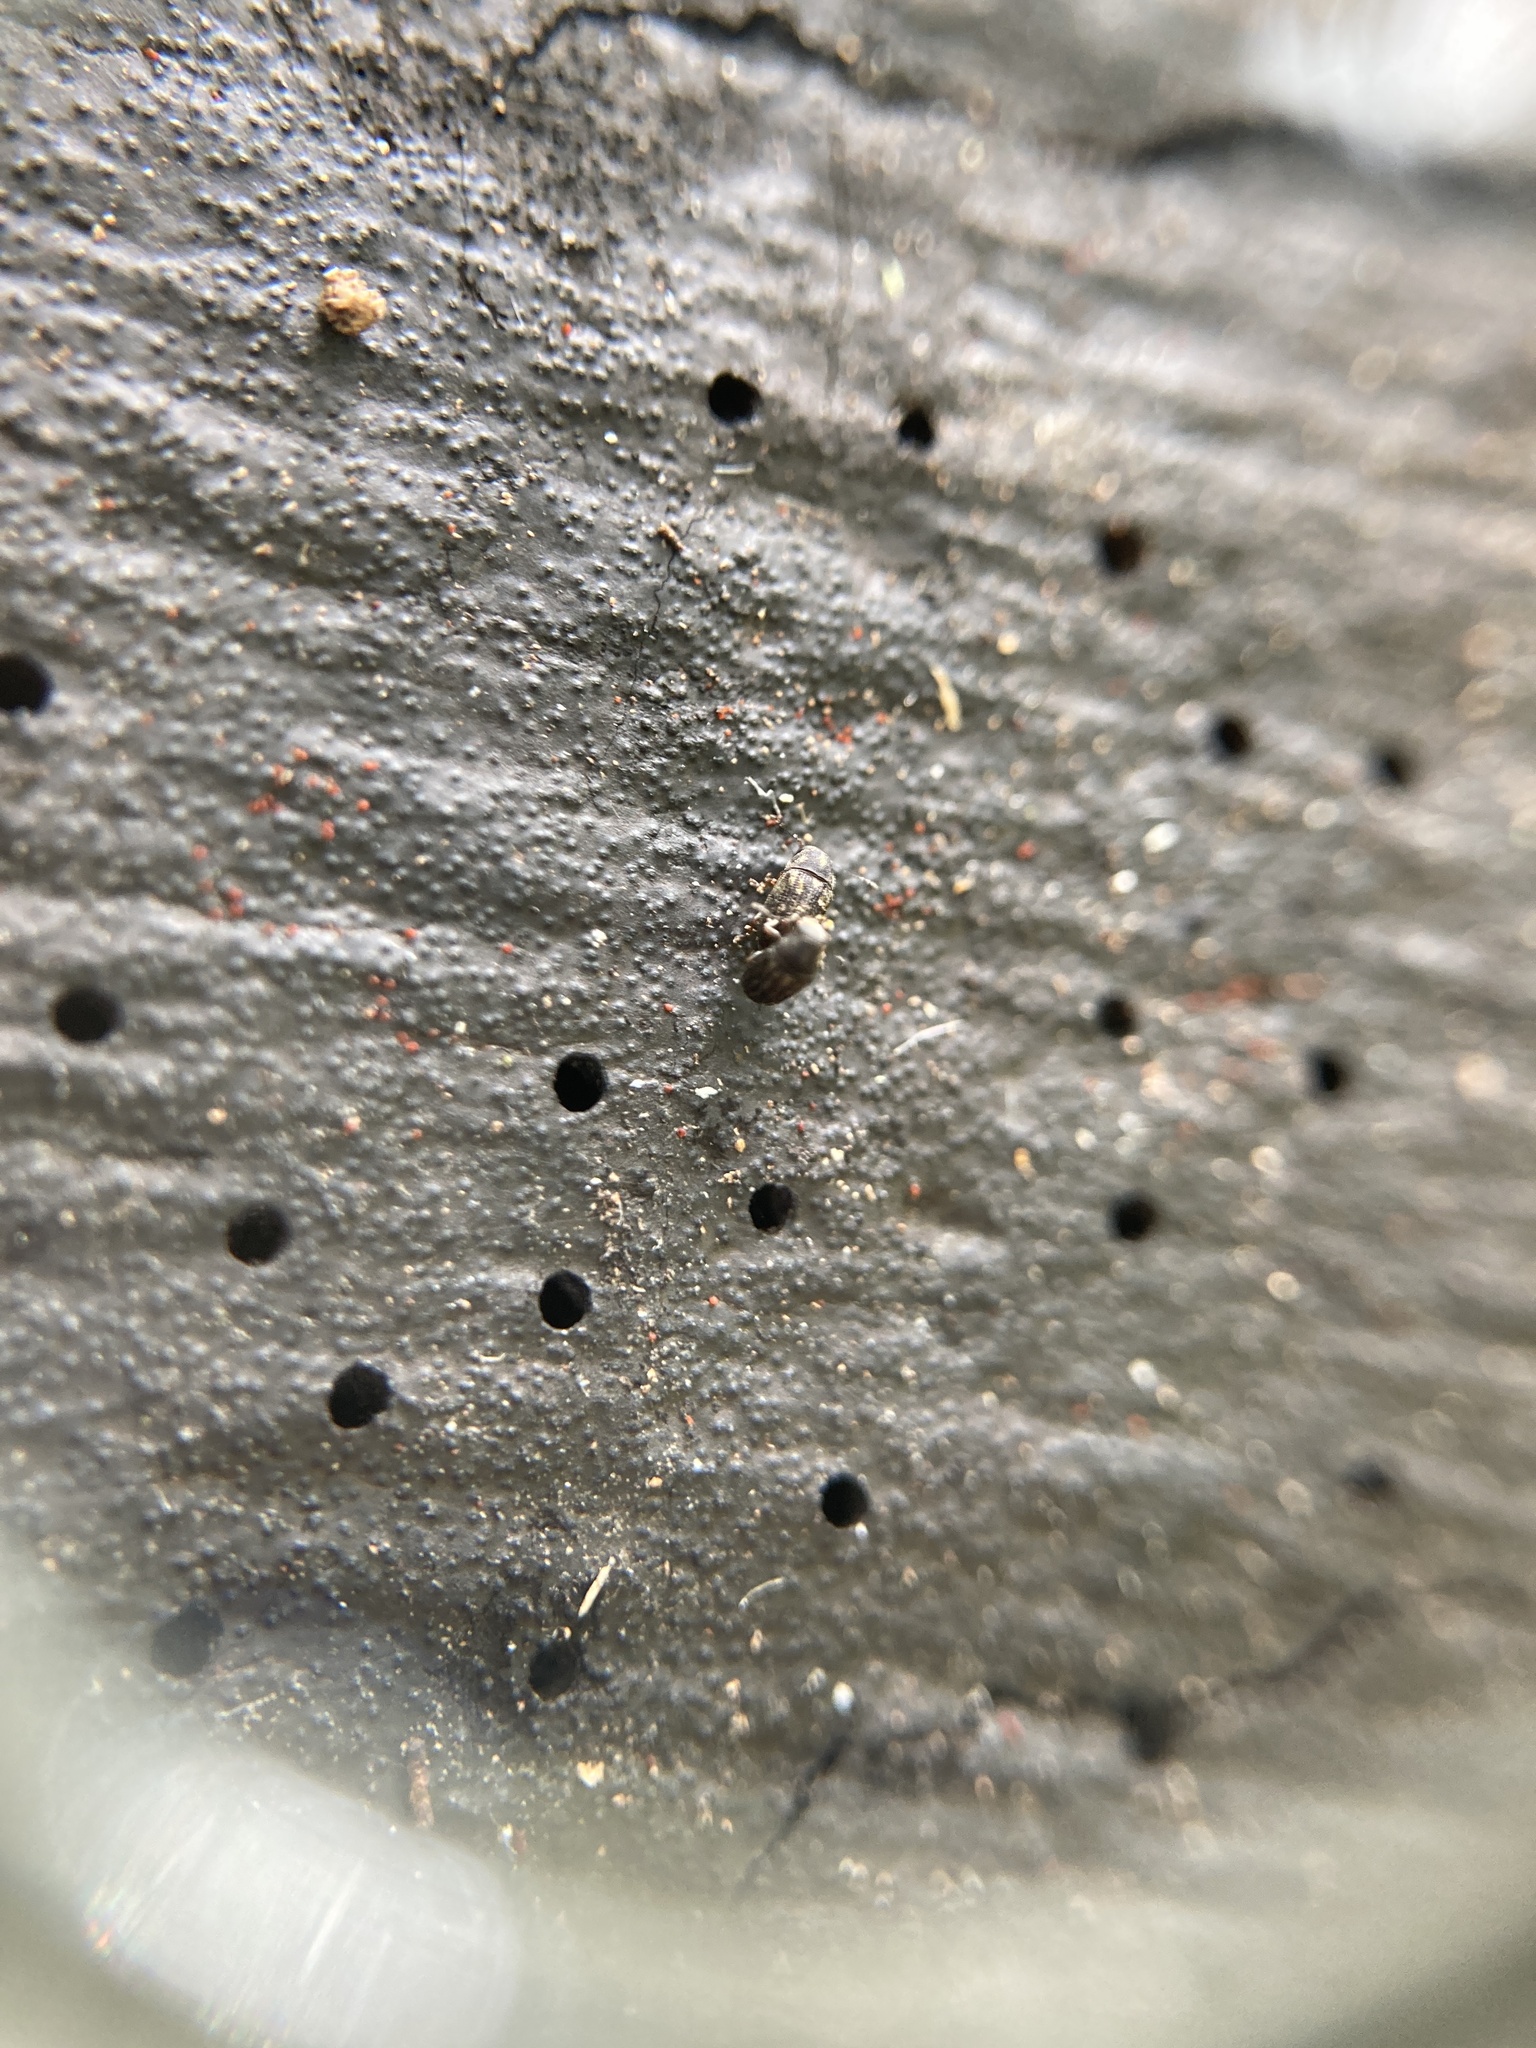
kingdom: Animalia
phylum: Arthropoda
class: Insecta
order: Coleoptera
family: Anthribidae
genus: Araeocerodes
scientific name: Araeocerodes
